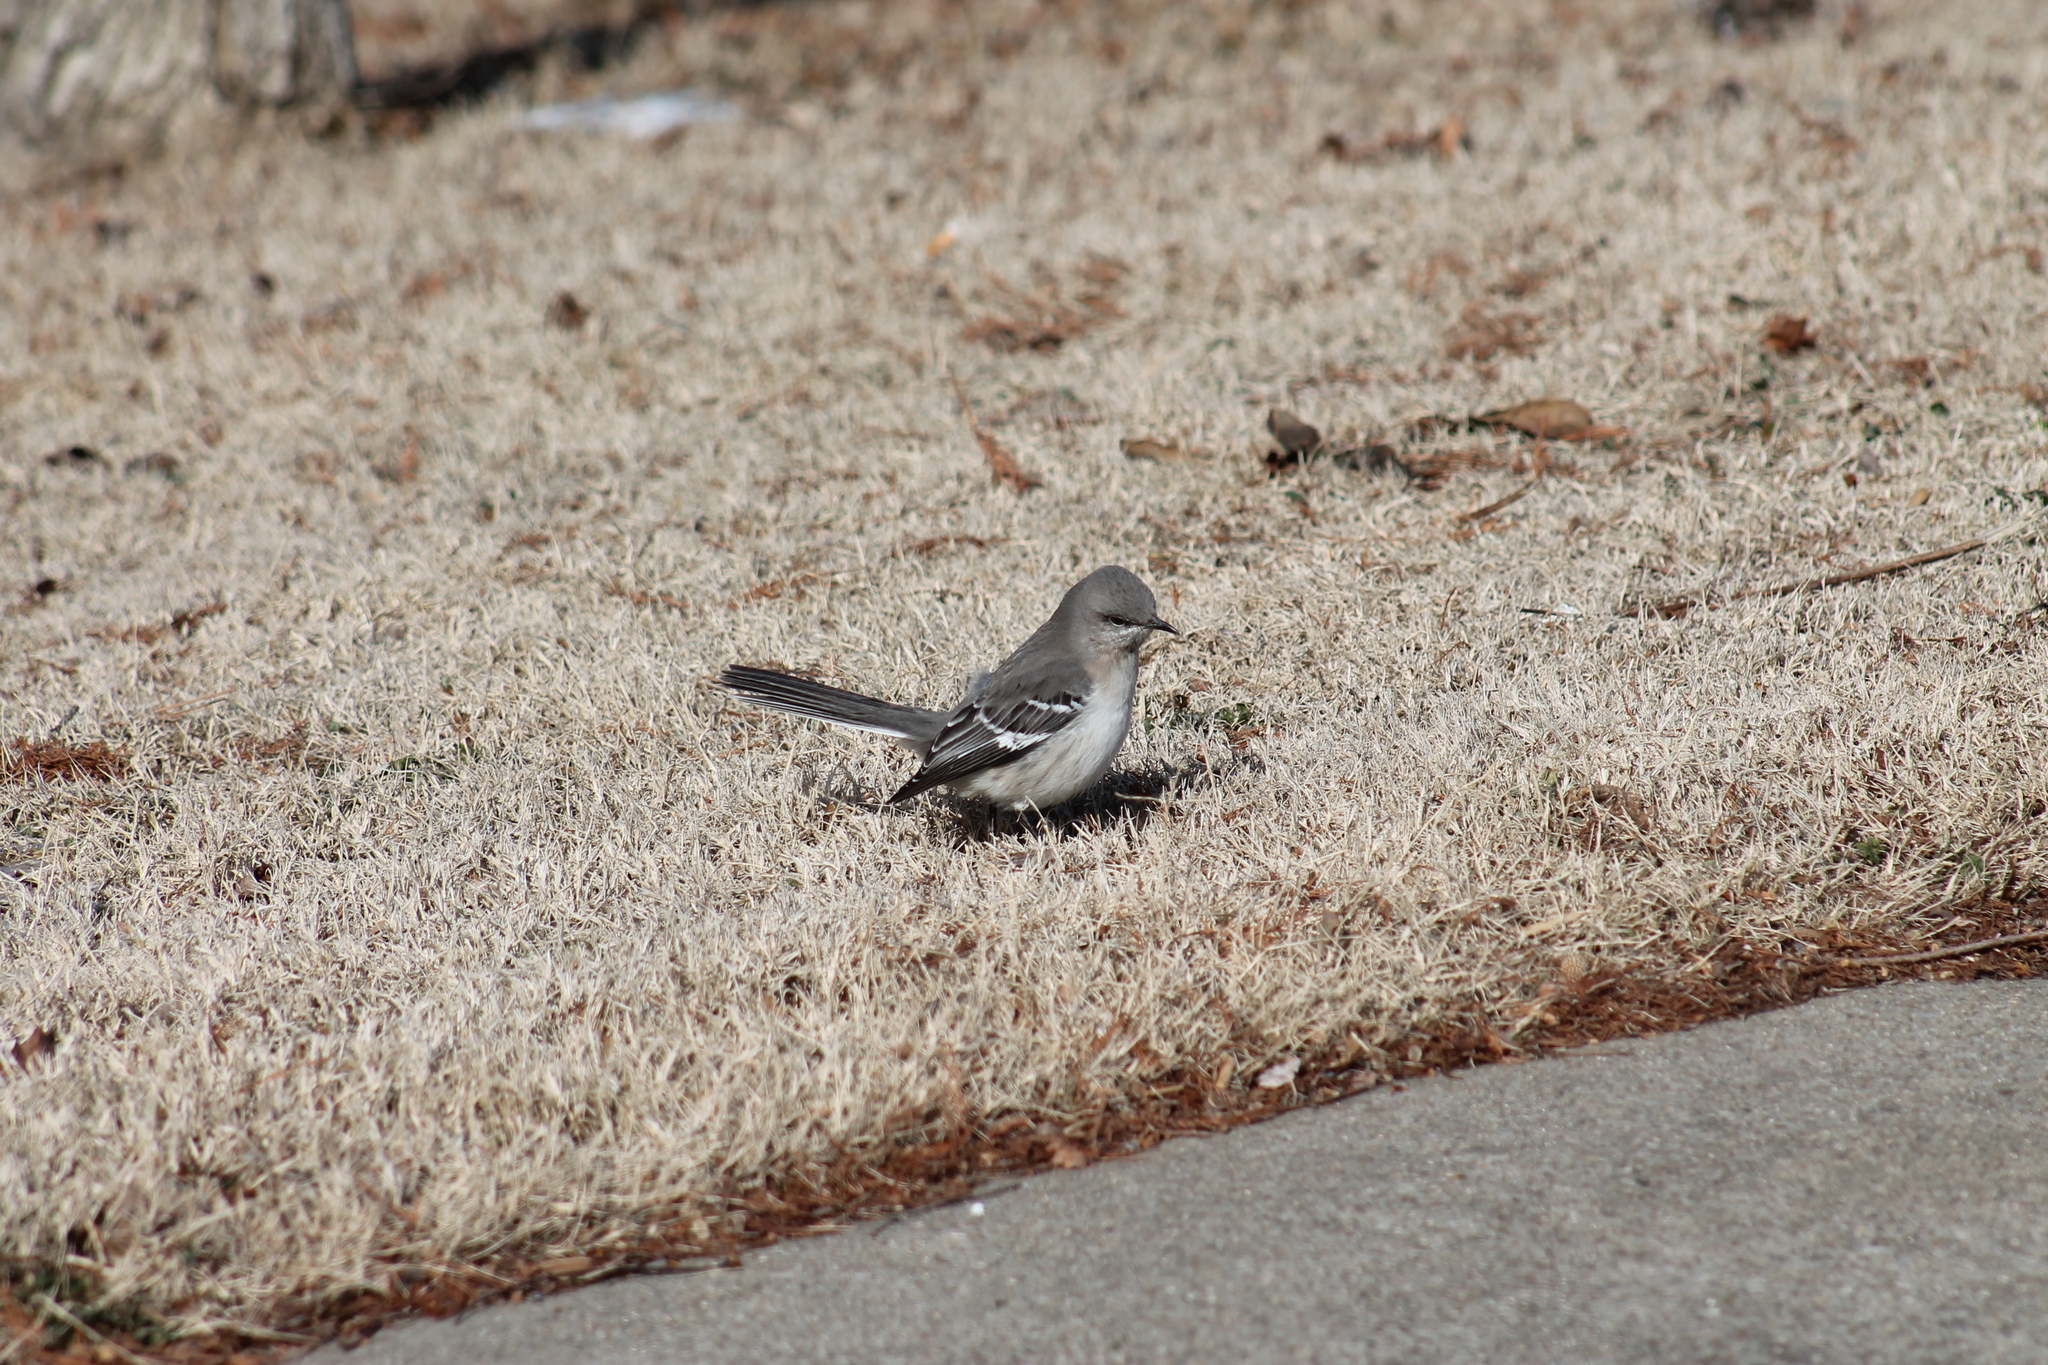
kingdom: Animalia
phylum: Chordata
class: Aves
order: Passeriformes
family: Mimidae
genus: Mimus
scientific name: Mimus polyglottos
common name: Northern mockingbird
